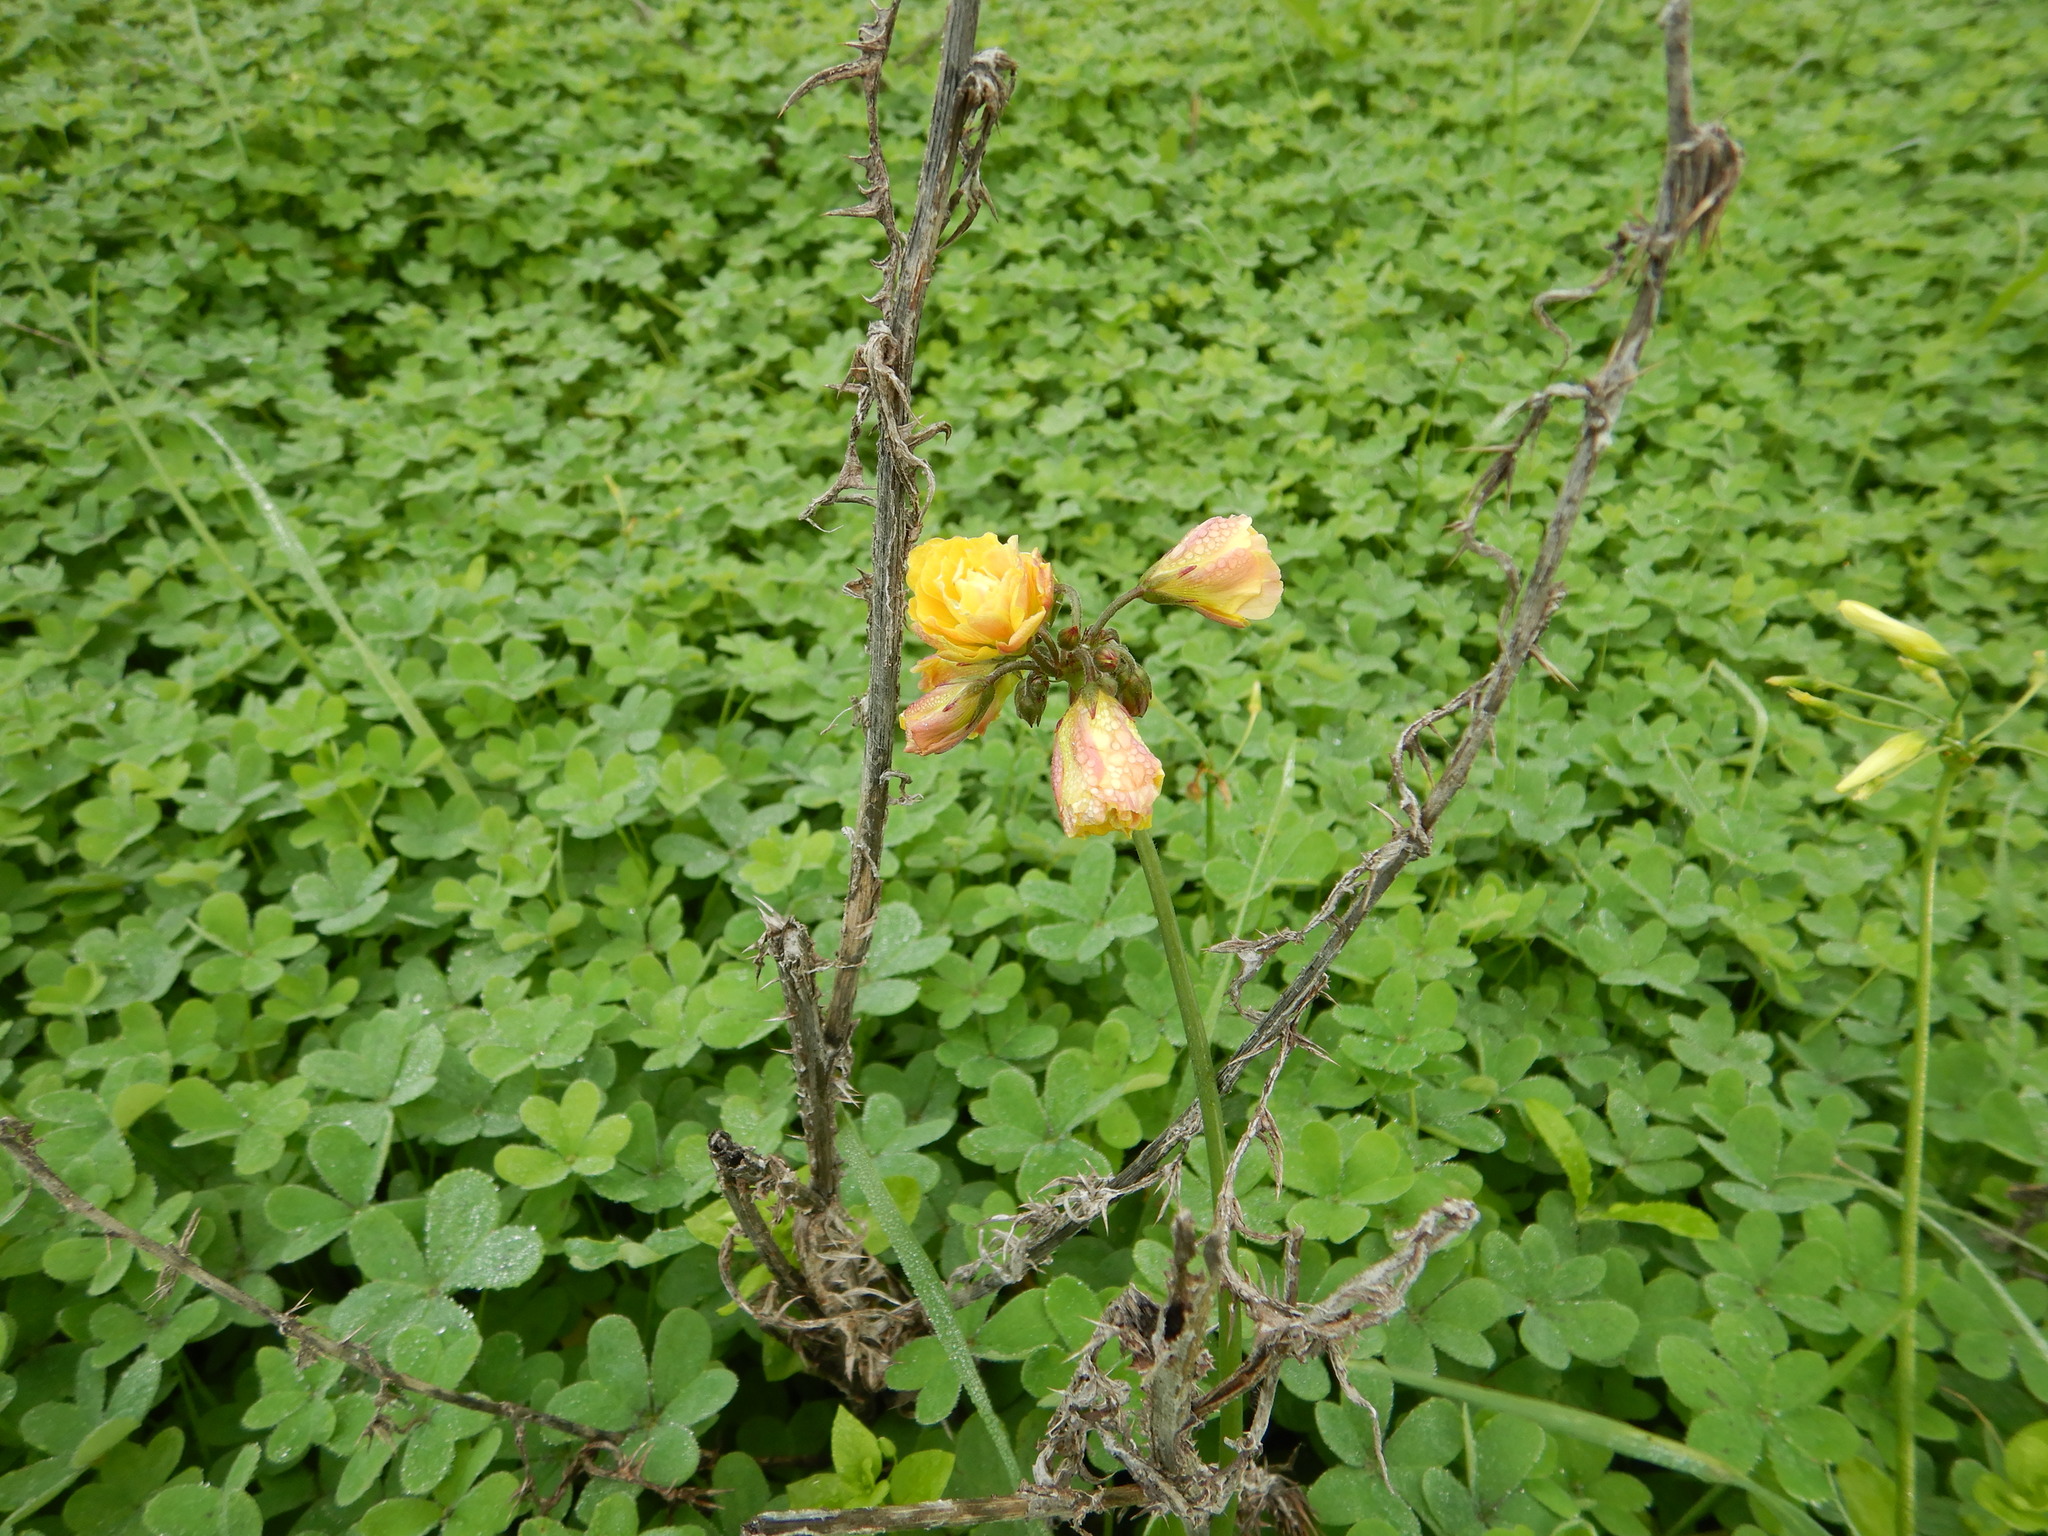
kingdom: Plantae
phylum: Tracheophyta
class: Magnoliopsida
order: Oxalidales
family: Oxalidaceae
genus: Oxalis
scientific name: Oxalis pes-caprae
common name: Bermuda-buttercup
